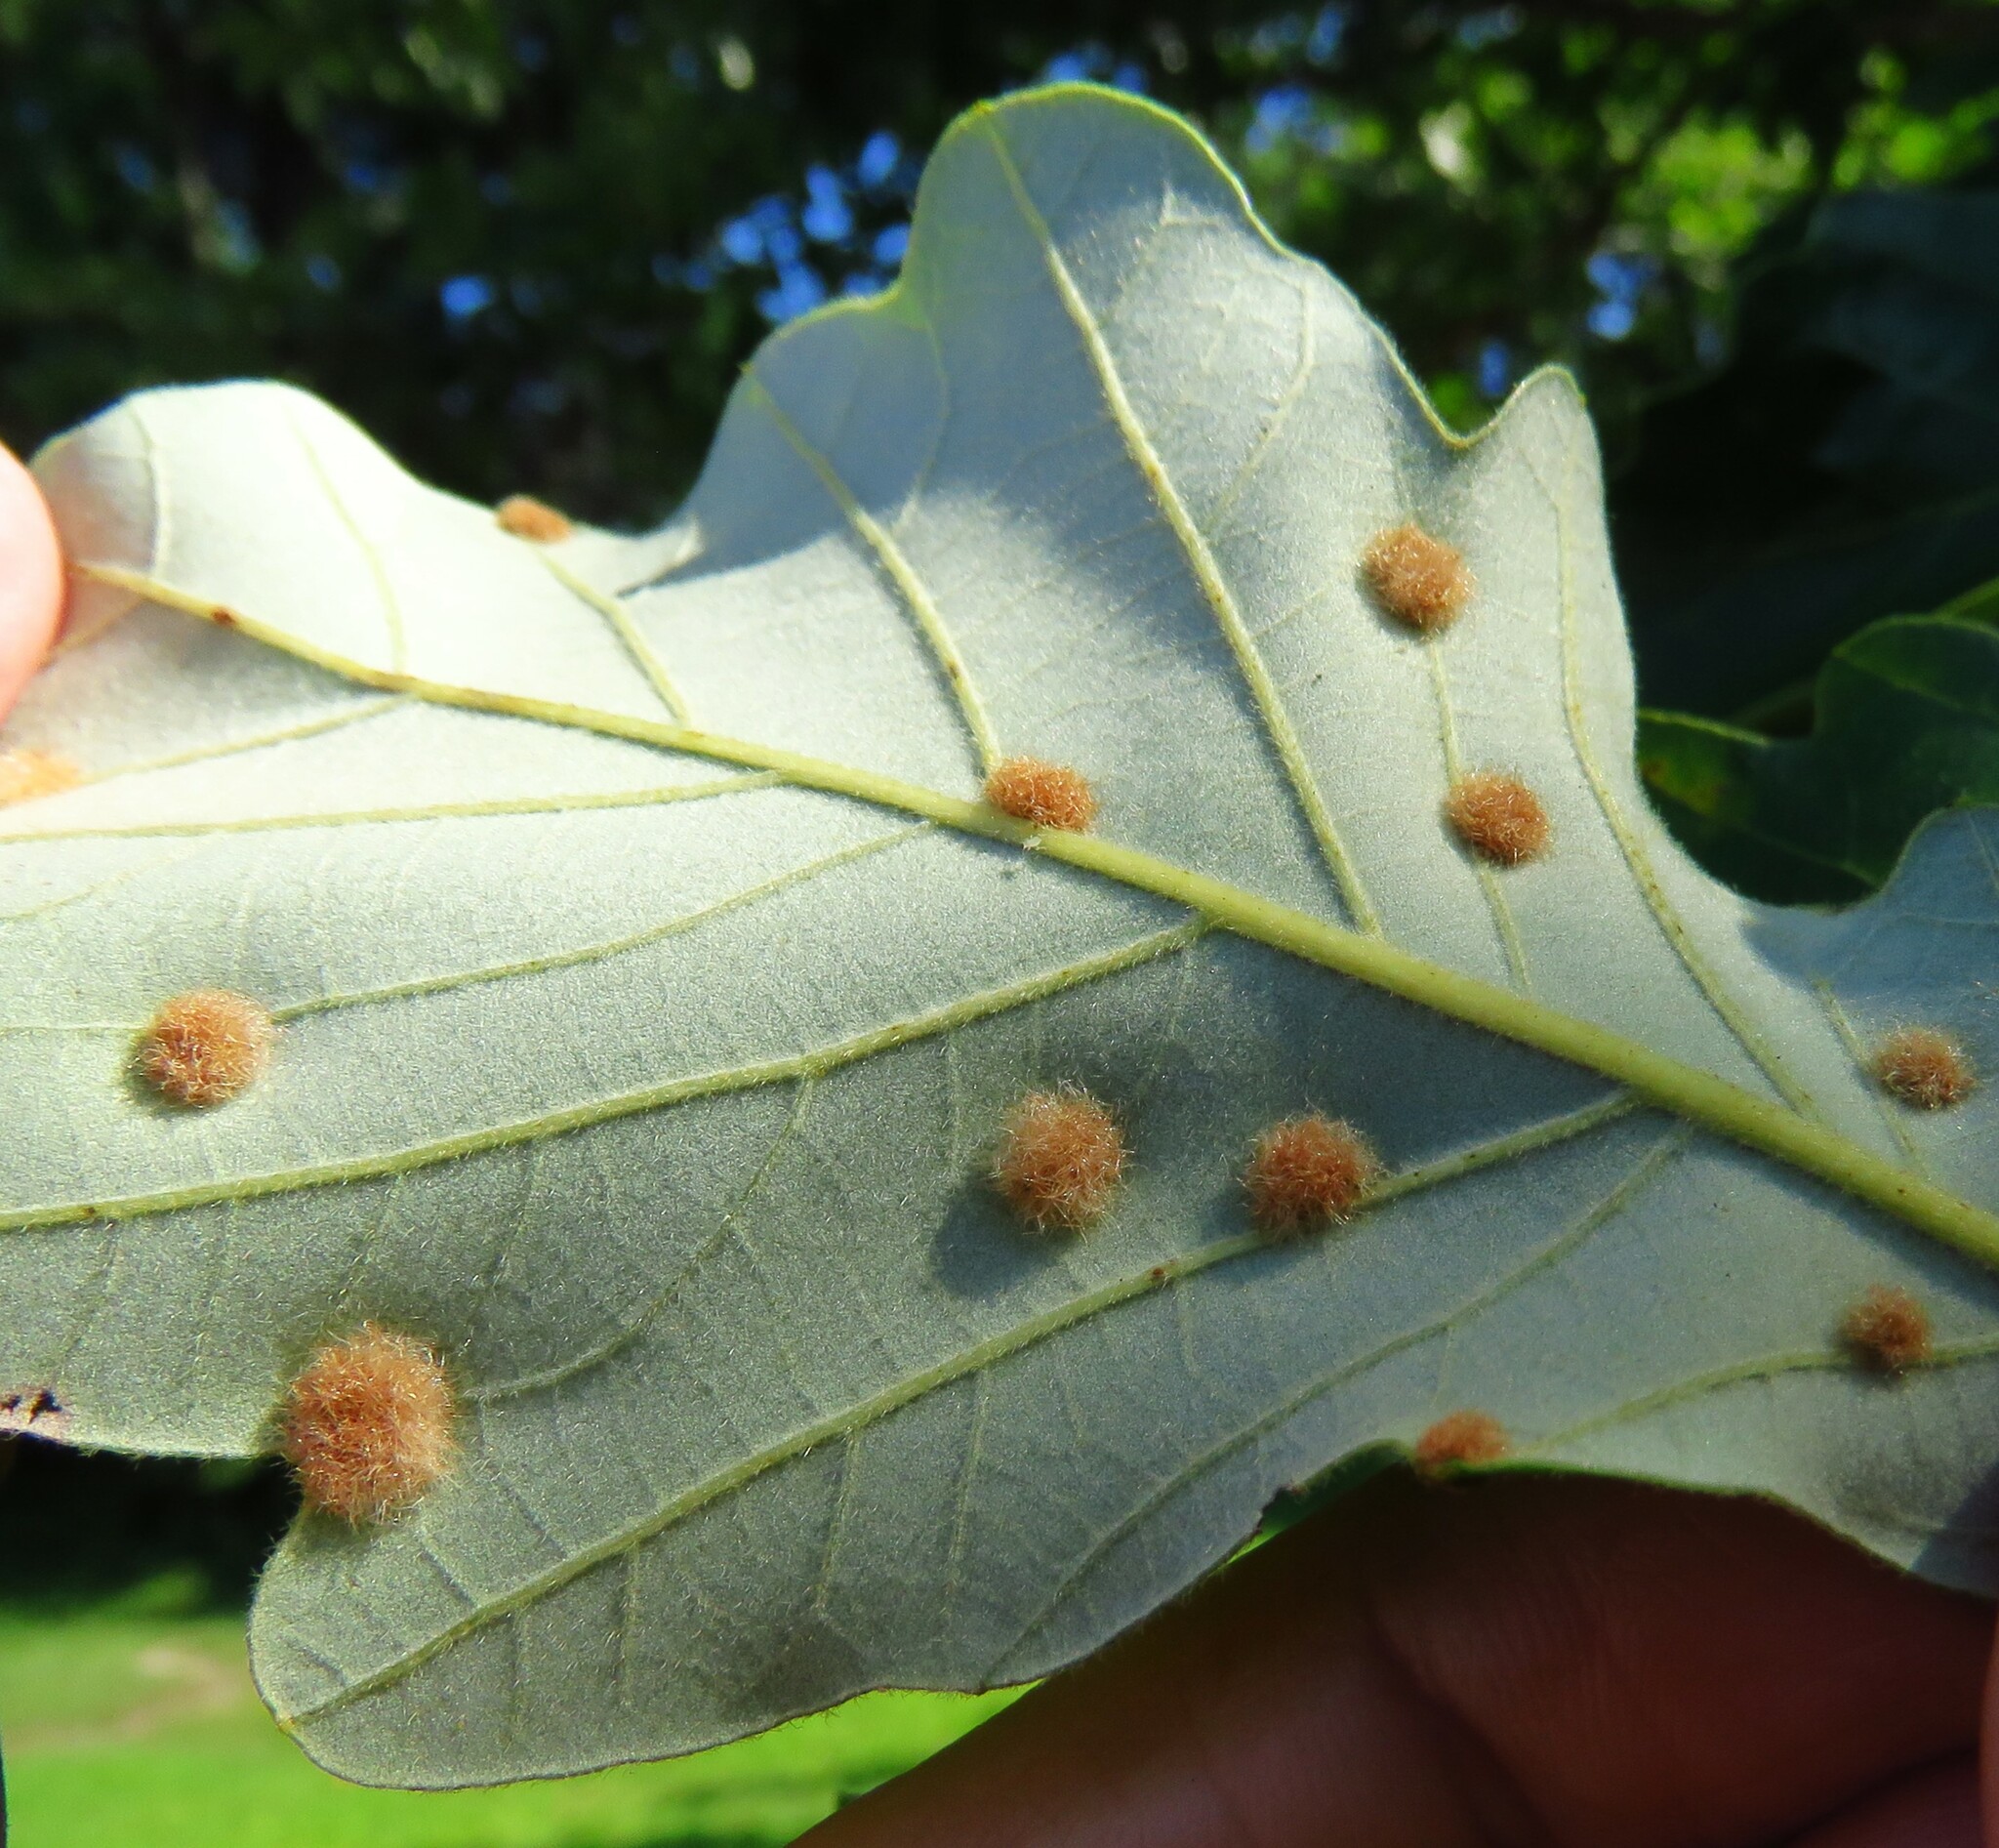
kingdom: Animalia
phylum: Arthropoda
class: Insecta
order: Hymenoptera
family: Cynipidae
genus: Neuroterus
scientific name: Neuroterus floccosus
